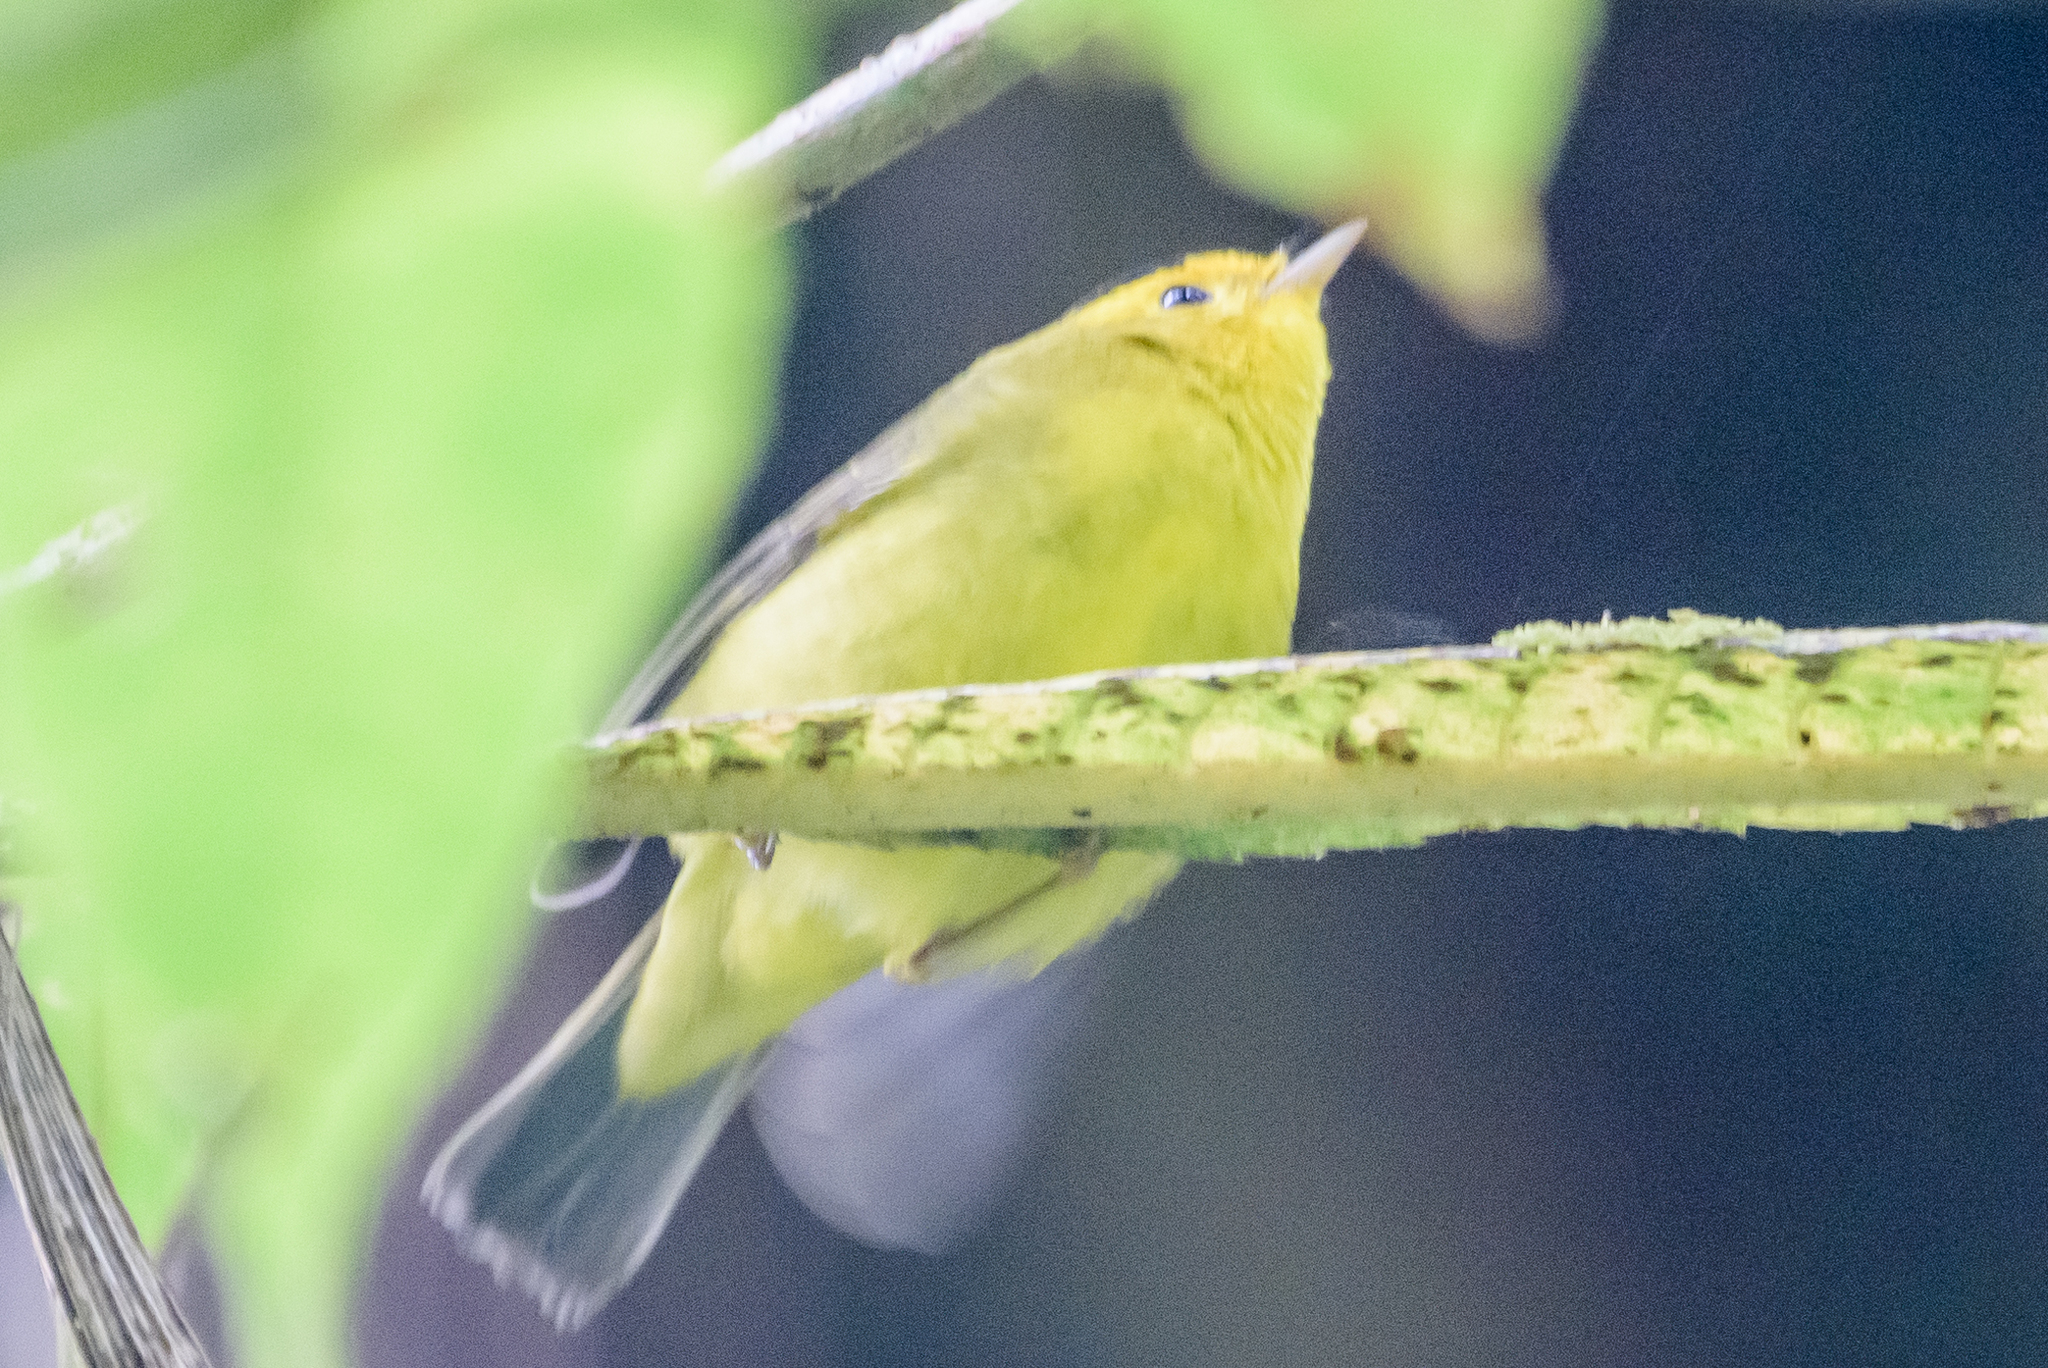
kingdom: Animalia
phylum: Chordata
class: Aves
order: Passeriformes
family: Parulidae
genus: Cardellina
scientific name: Cardellina pusilla
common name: Wilson's warbler
